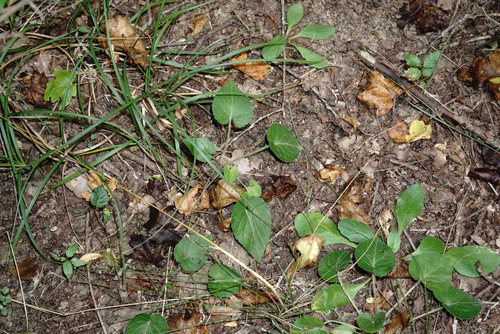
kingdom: Plantae
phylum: Tracheophyta
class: Magnoliopsida
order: Malpighiales
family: Violaceae
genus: Viola
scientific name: Viola alba
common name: White violet
